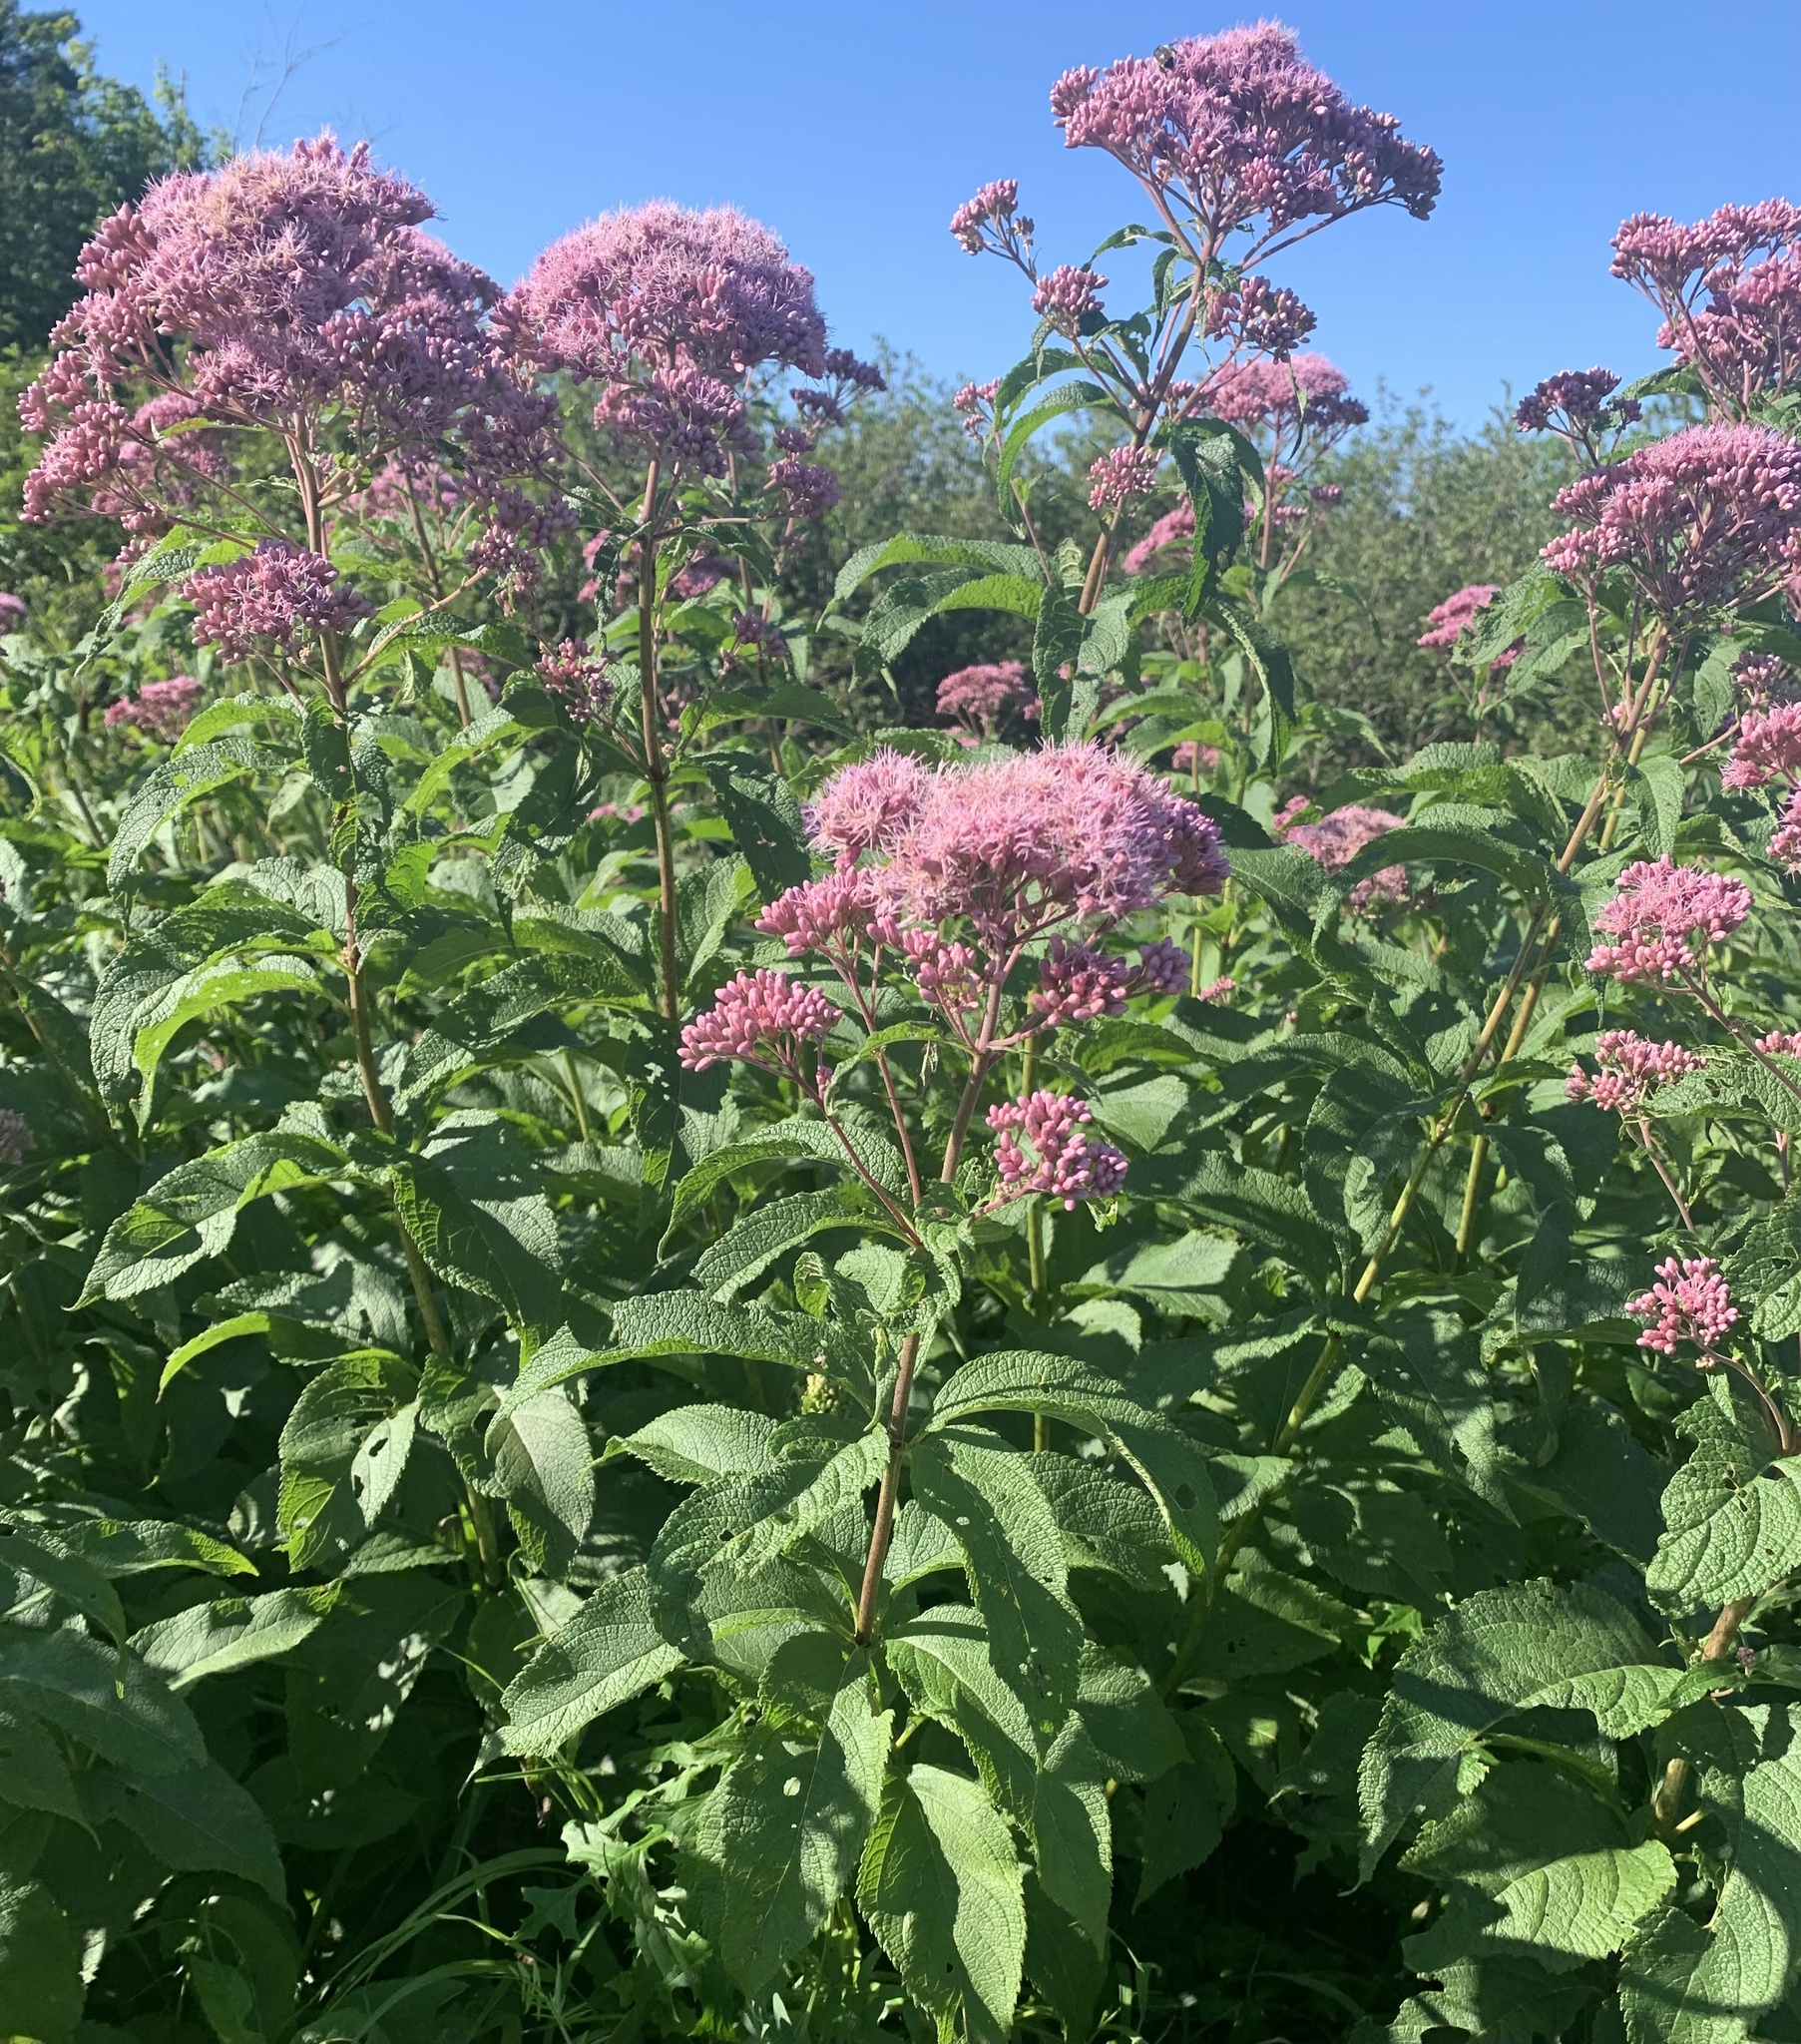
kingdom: Plantae
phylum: Tracheophyta
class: Magnoliopsida
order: Asterales
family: Asteraceae
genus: Eutrochium
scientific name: Eutrochium maculatum
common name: Spotted joe pye weed
